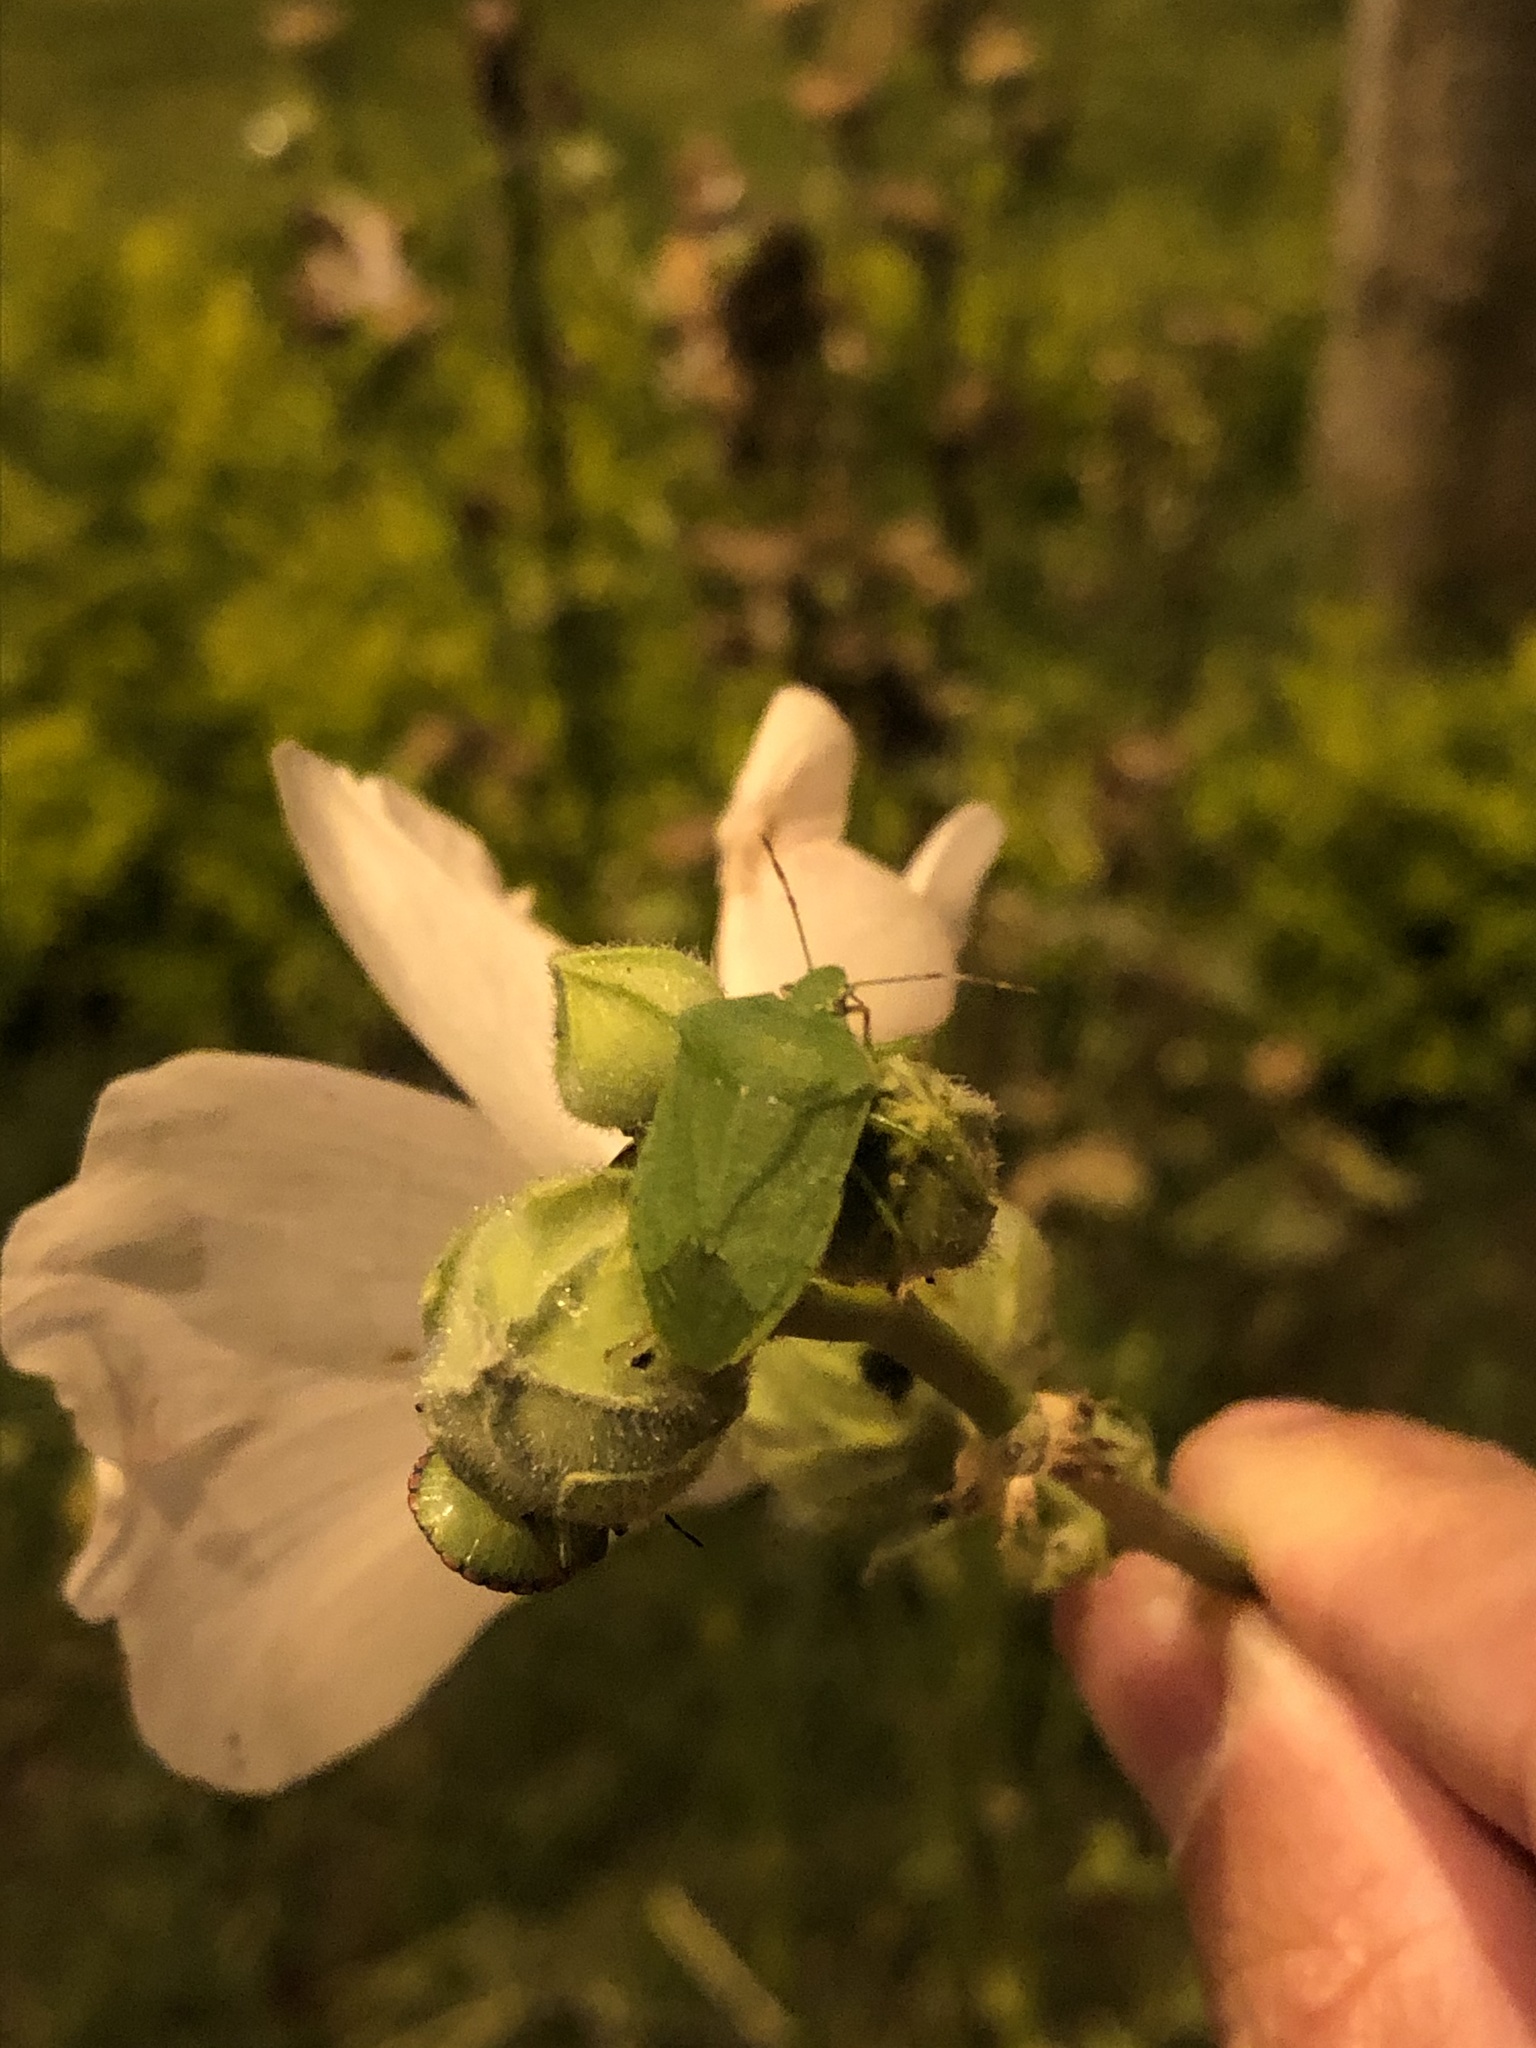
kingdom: Animalia
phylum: Arthropoda
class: Insecta
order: Hemiptera
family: Pentatomidae
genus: Nezara
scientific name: Nezara viridula
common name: Southern green stink bug
